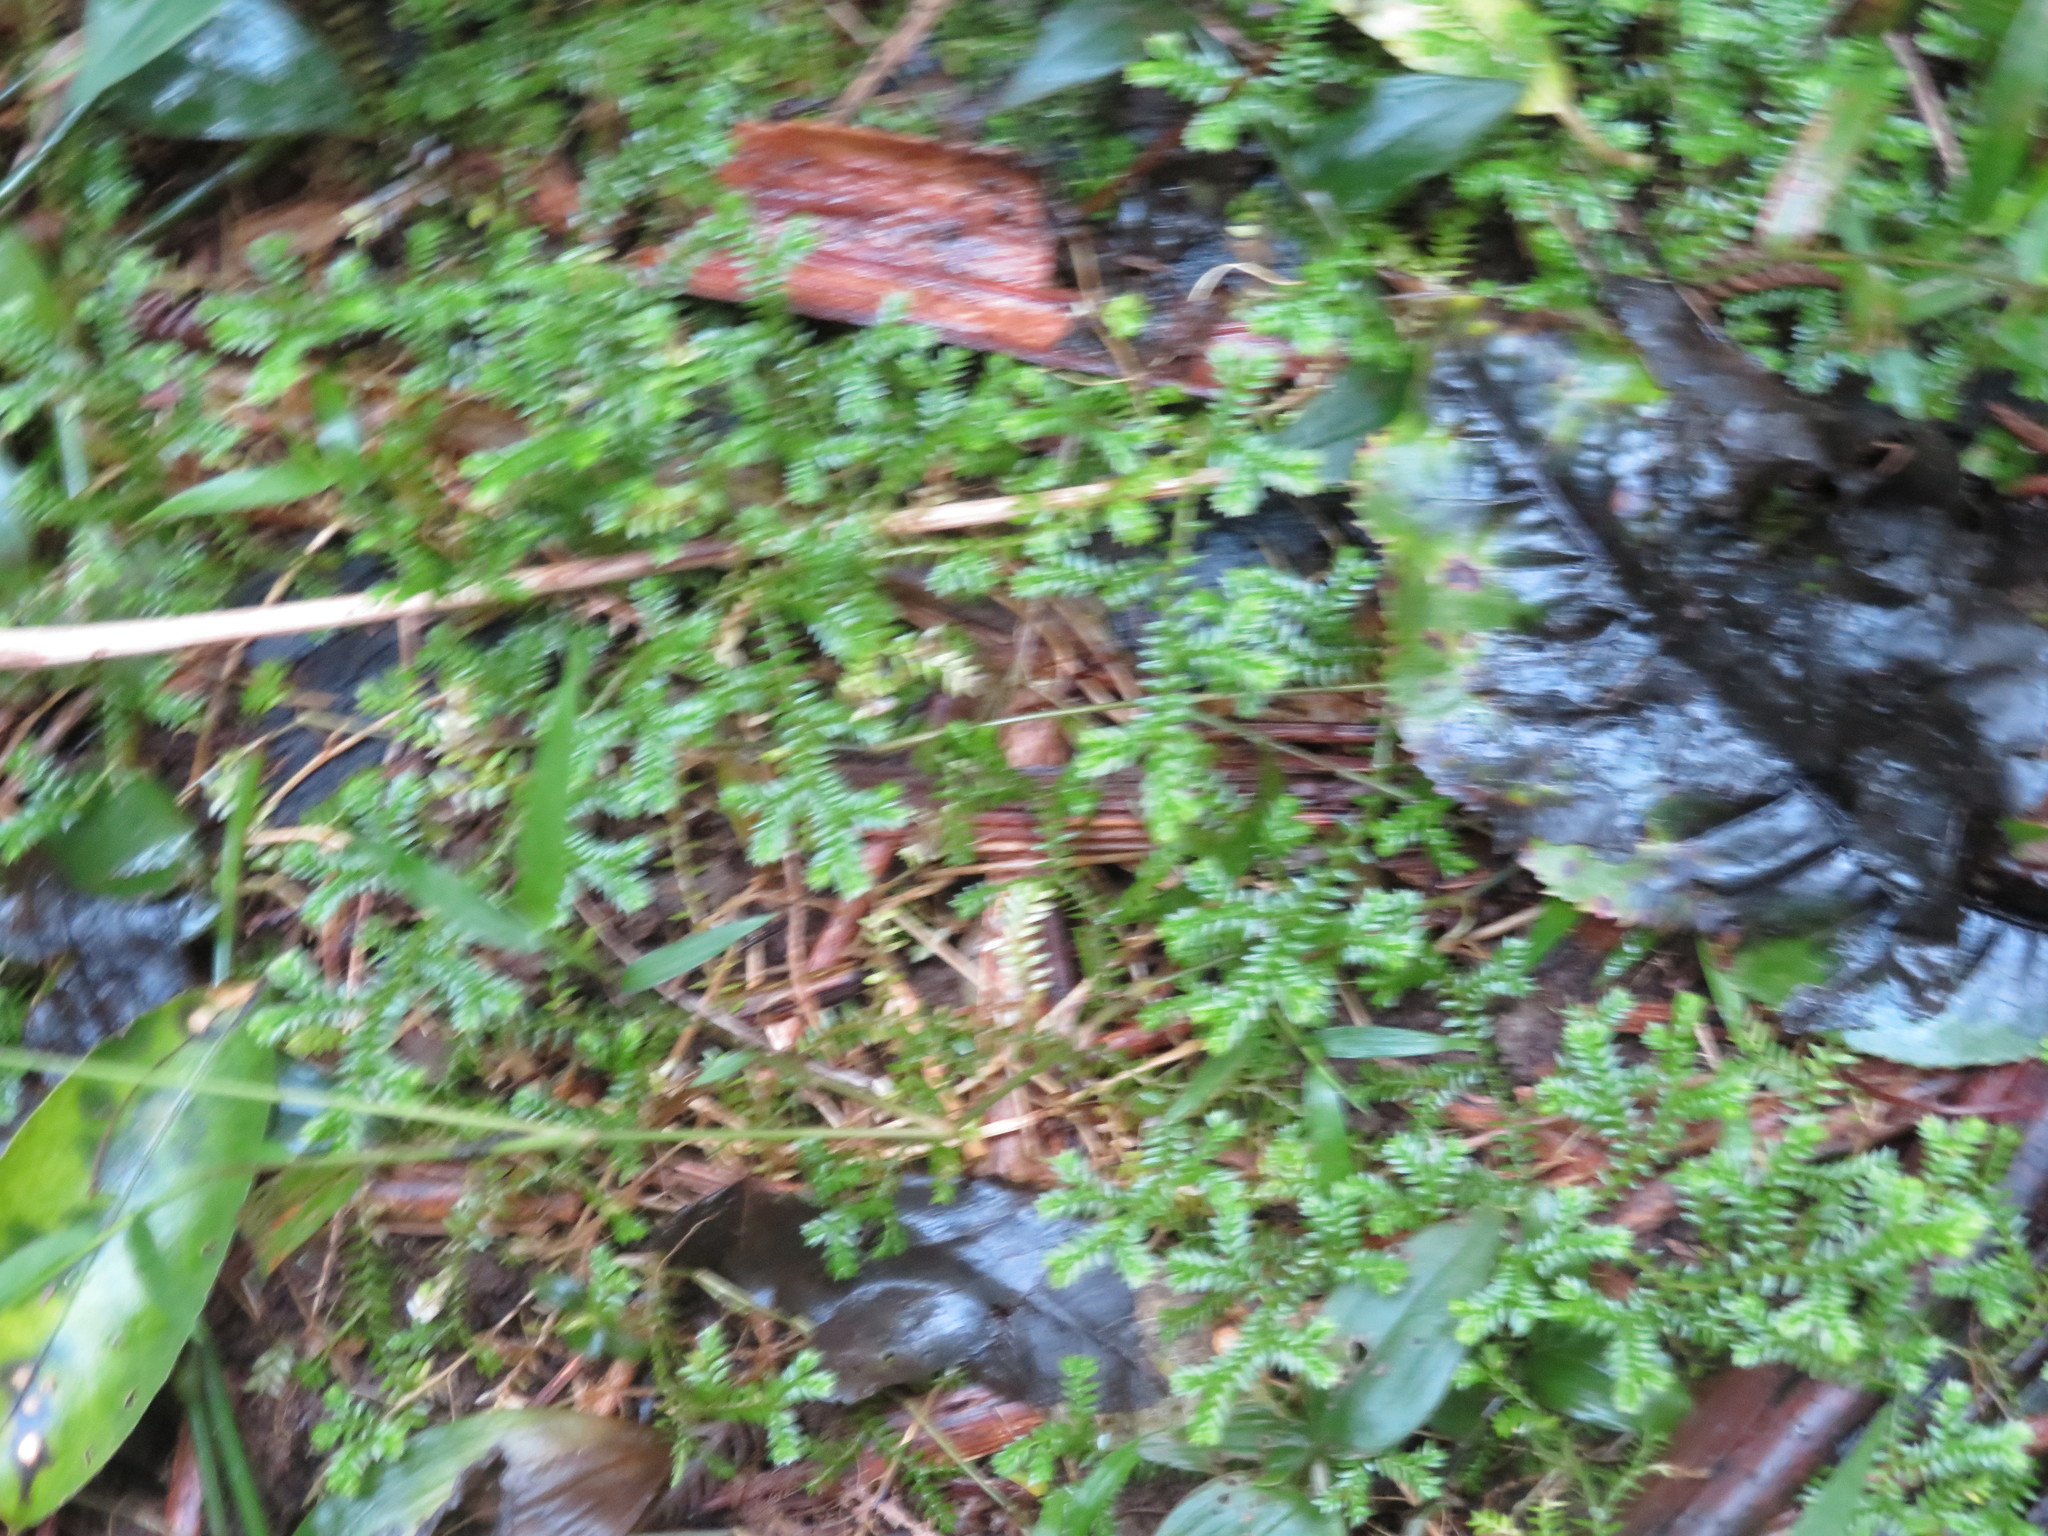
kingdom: Plantae
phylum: Tracheophyta
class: Liliopsida
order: Commelinales
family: Commelinaceae
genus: Tradescantia
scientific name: Tradescantia fluminensis
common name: Wandering-jew
